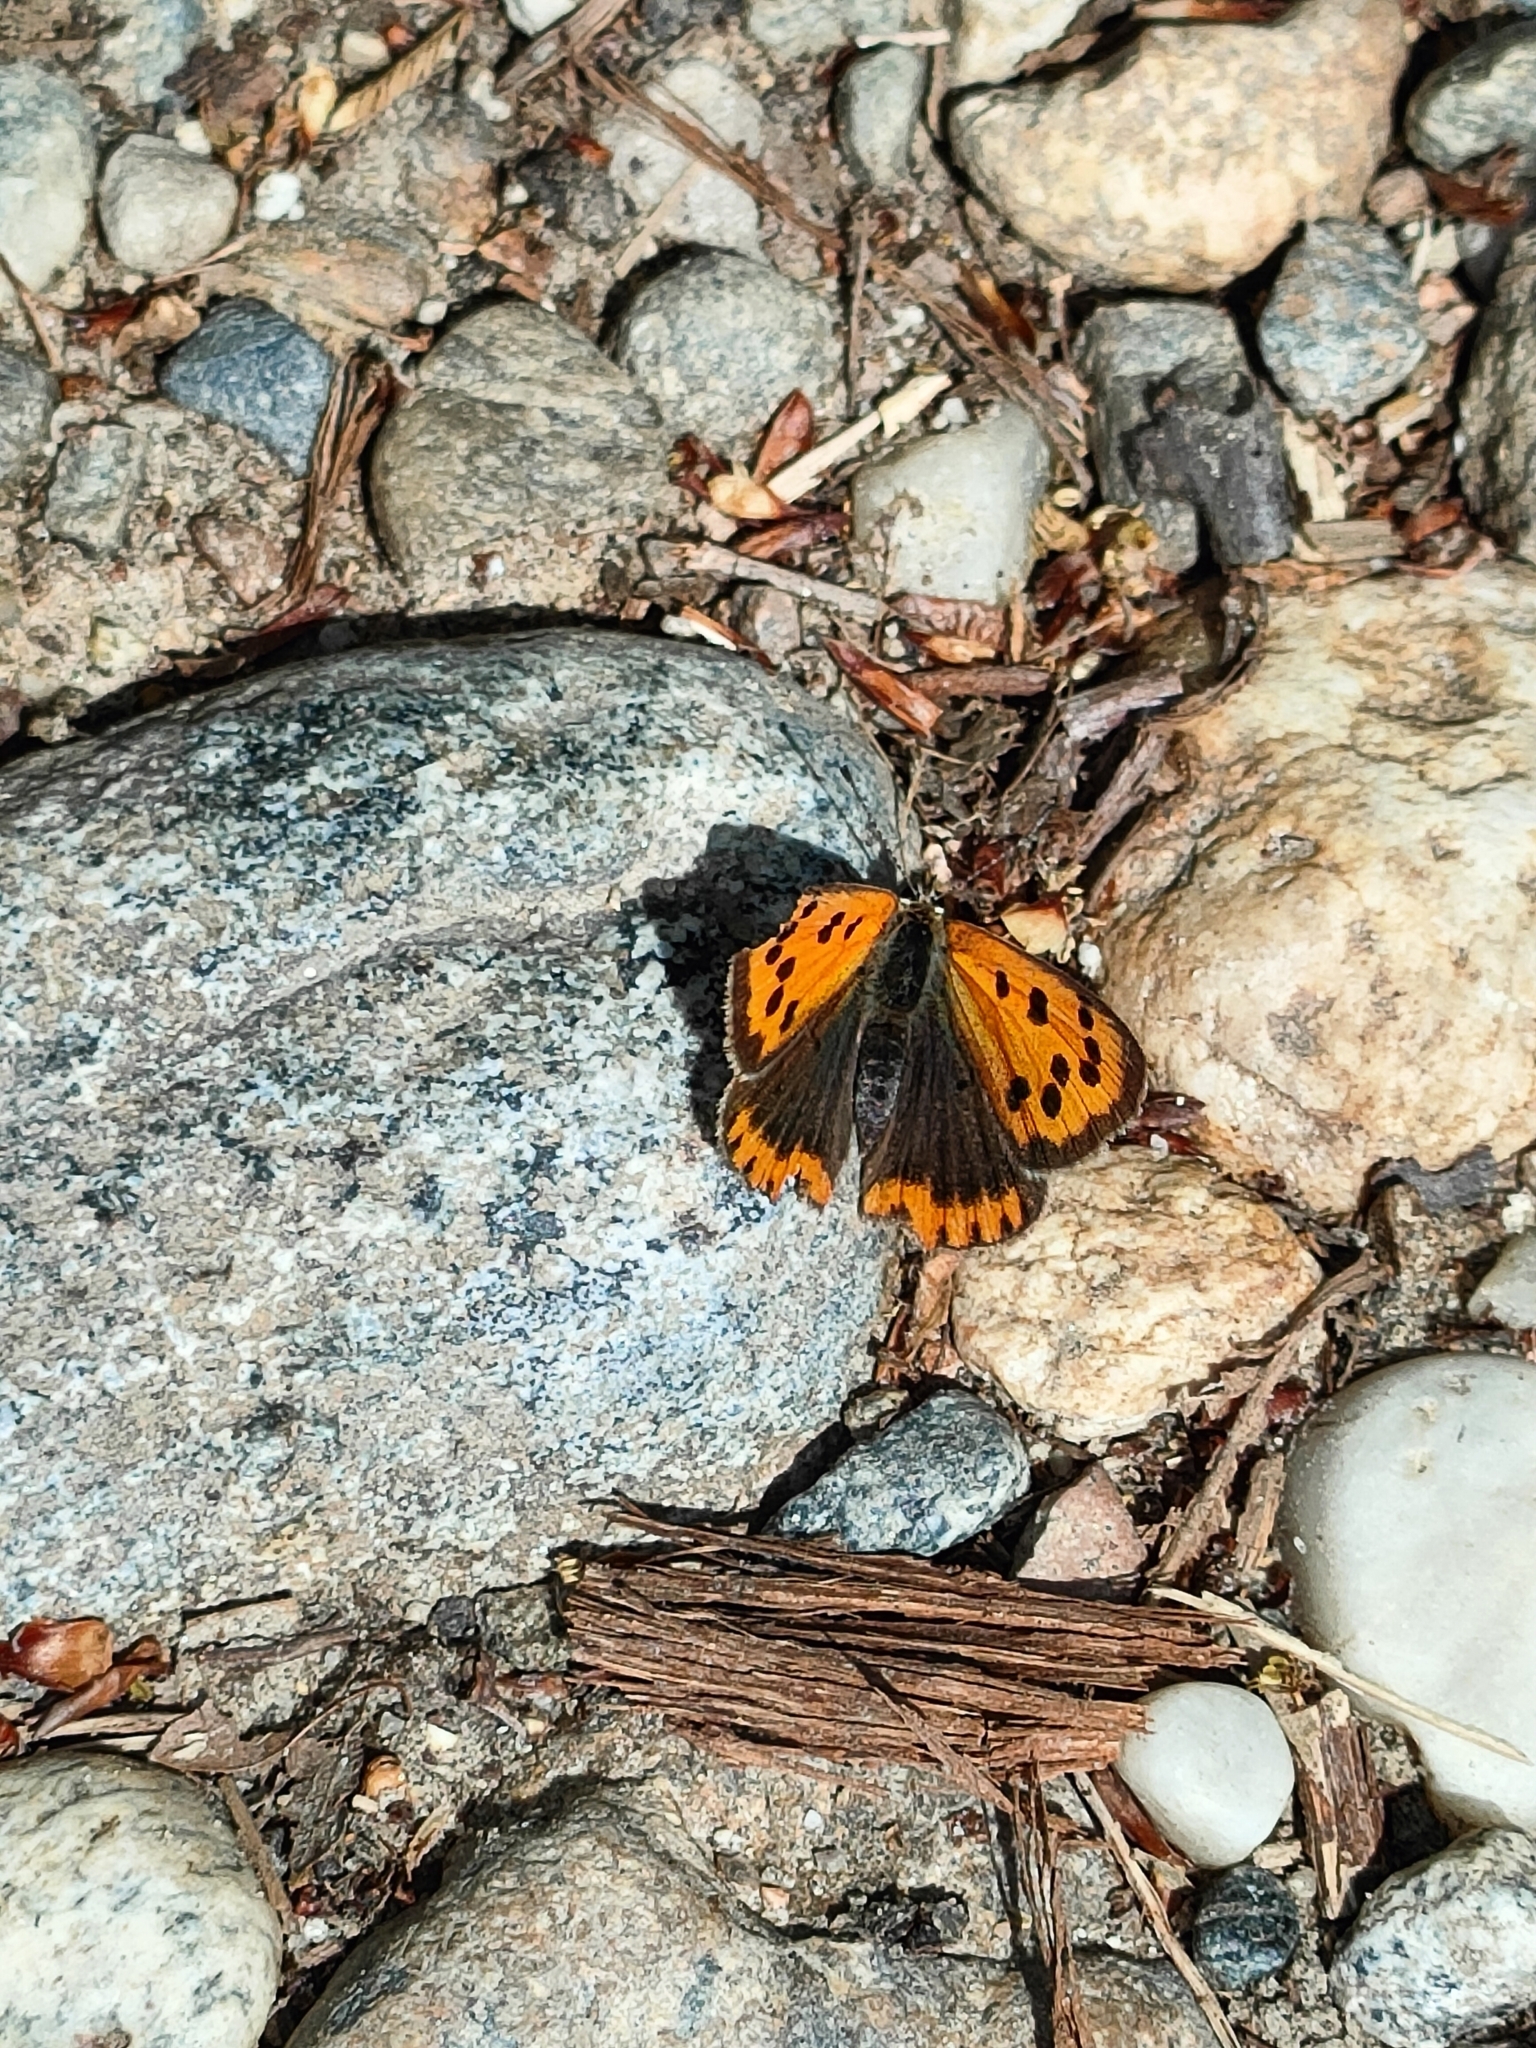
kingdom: Animalia
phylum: Arthropoda
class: Insecta
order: Lepidoptera
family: Lycaenidae
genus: Lycaena
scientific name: Lycaena phlaeas
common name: Small copper
